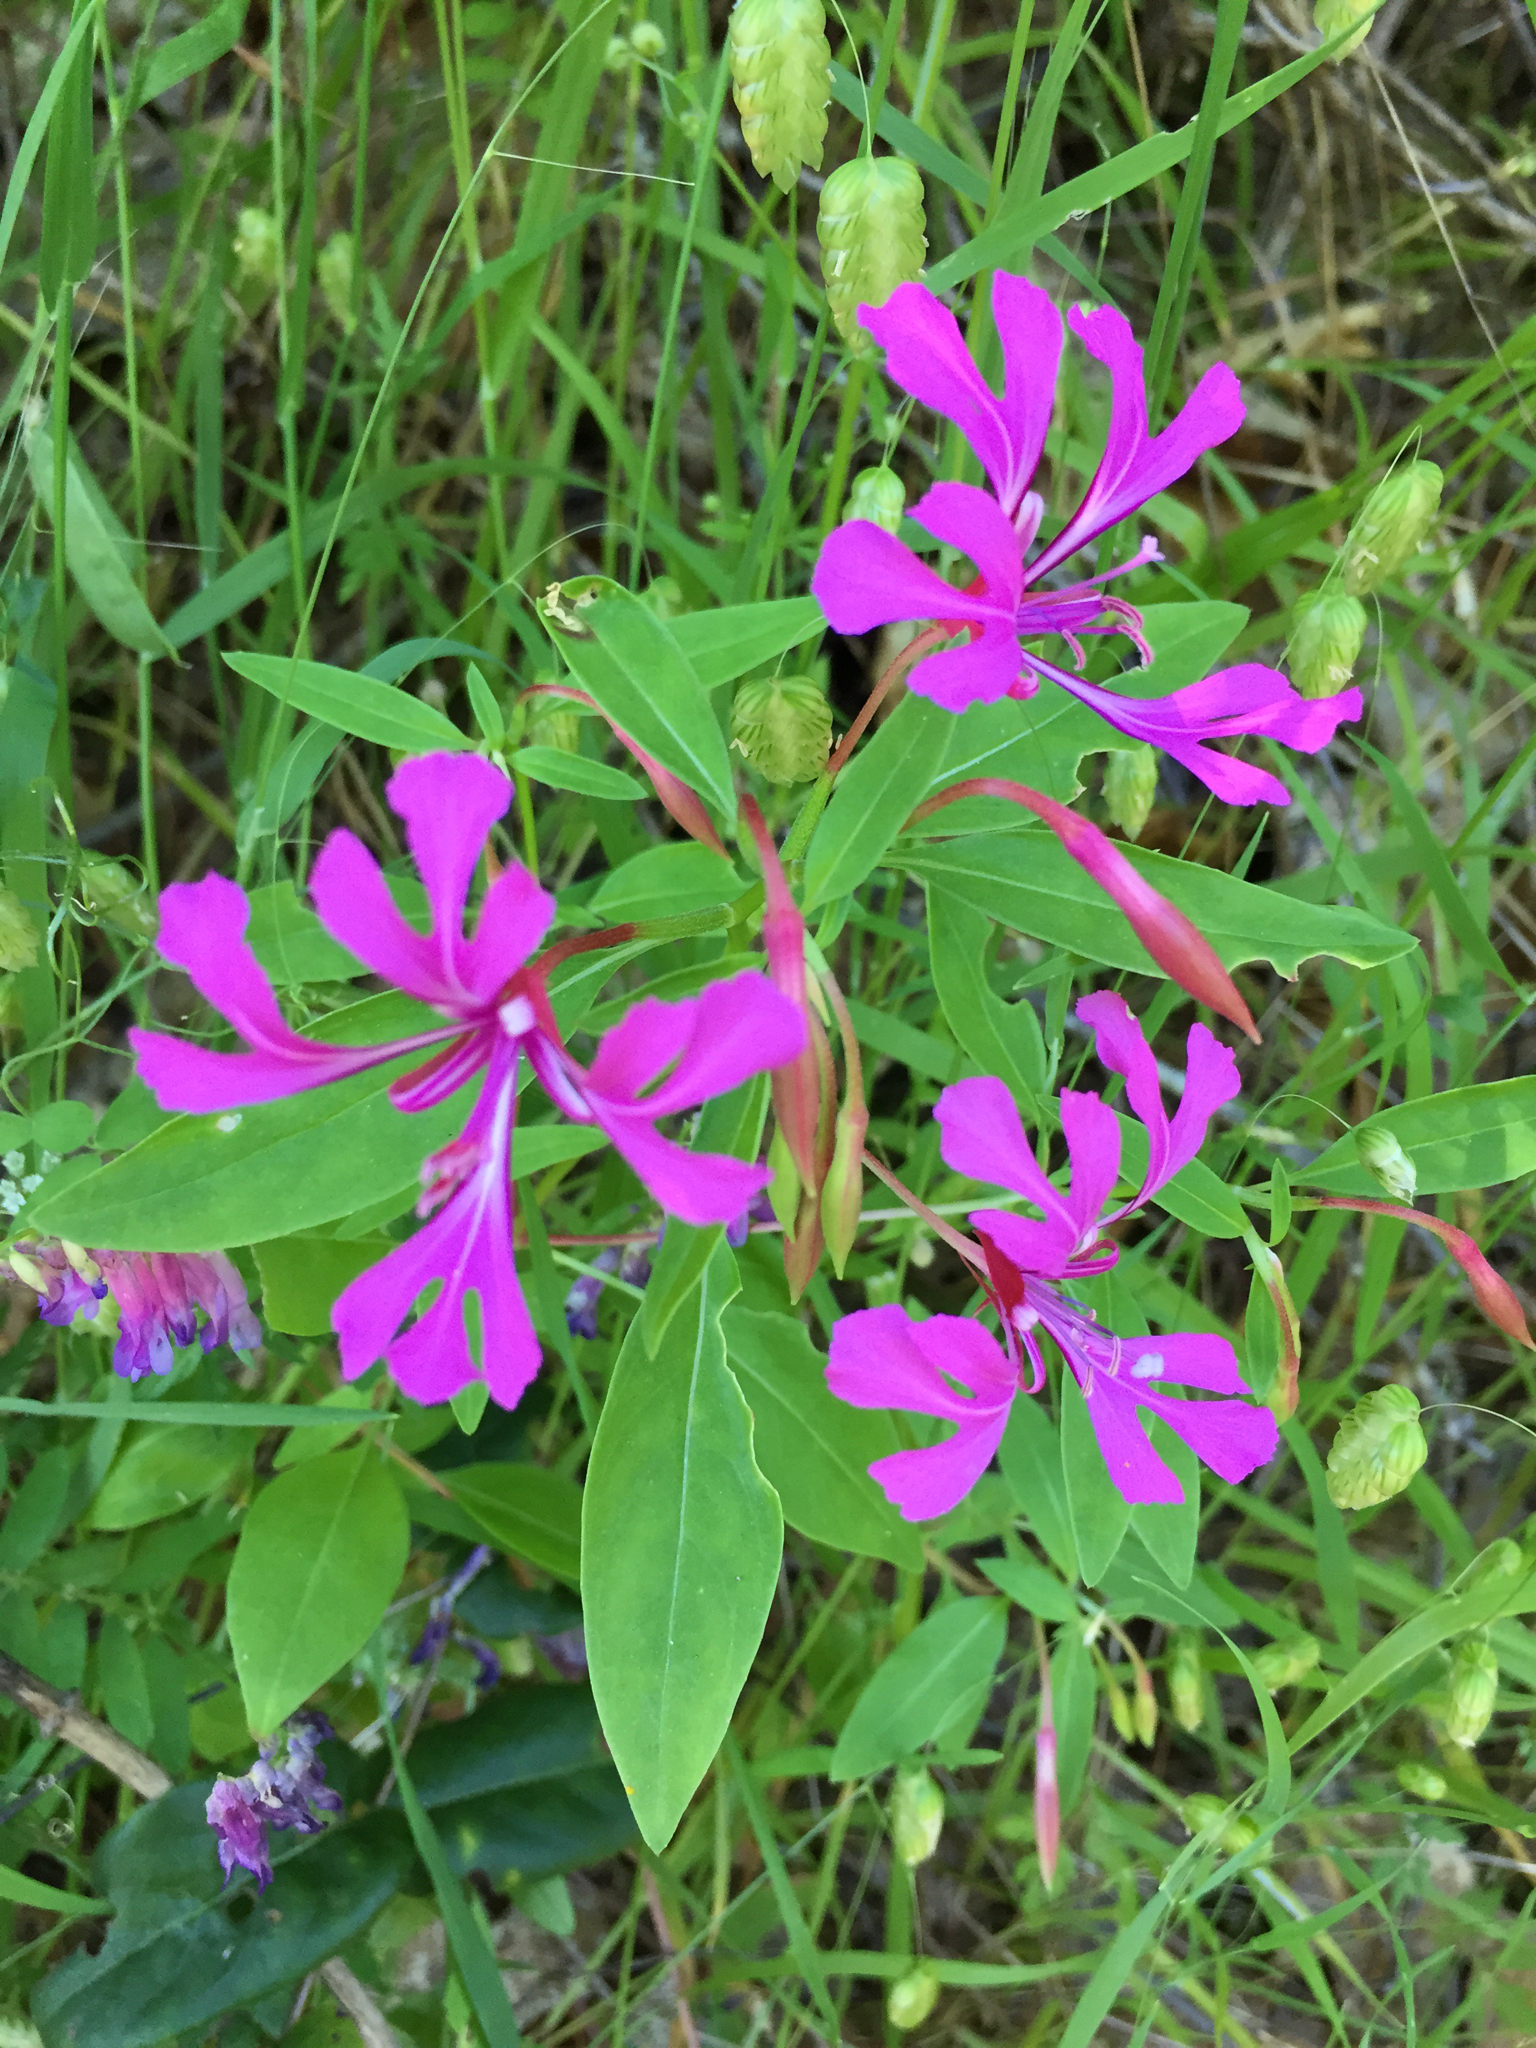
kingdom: Plantae
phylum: Tracheophyta
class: Magnoliopsida
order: Myrtales
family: Onagraceae
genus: Clarkia
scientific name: Clarkia concinna
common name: Red-ribbons
